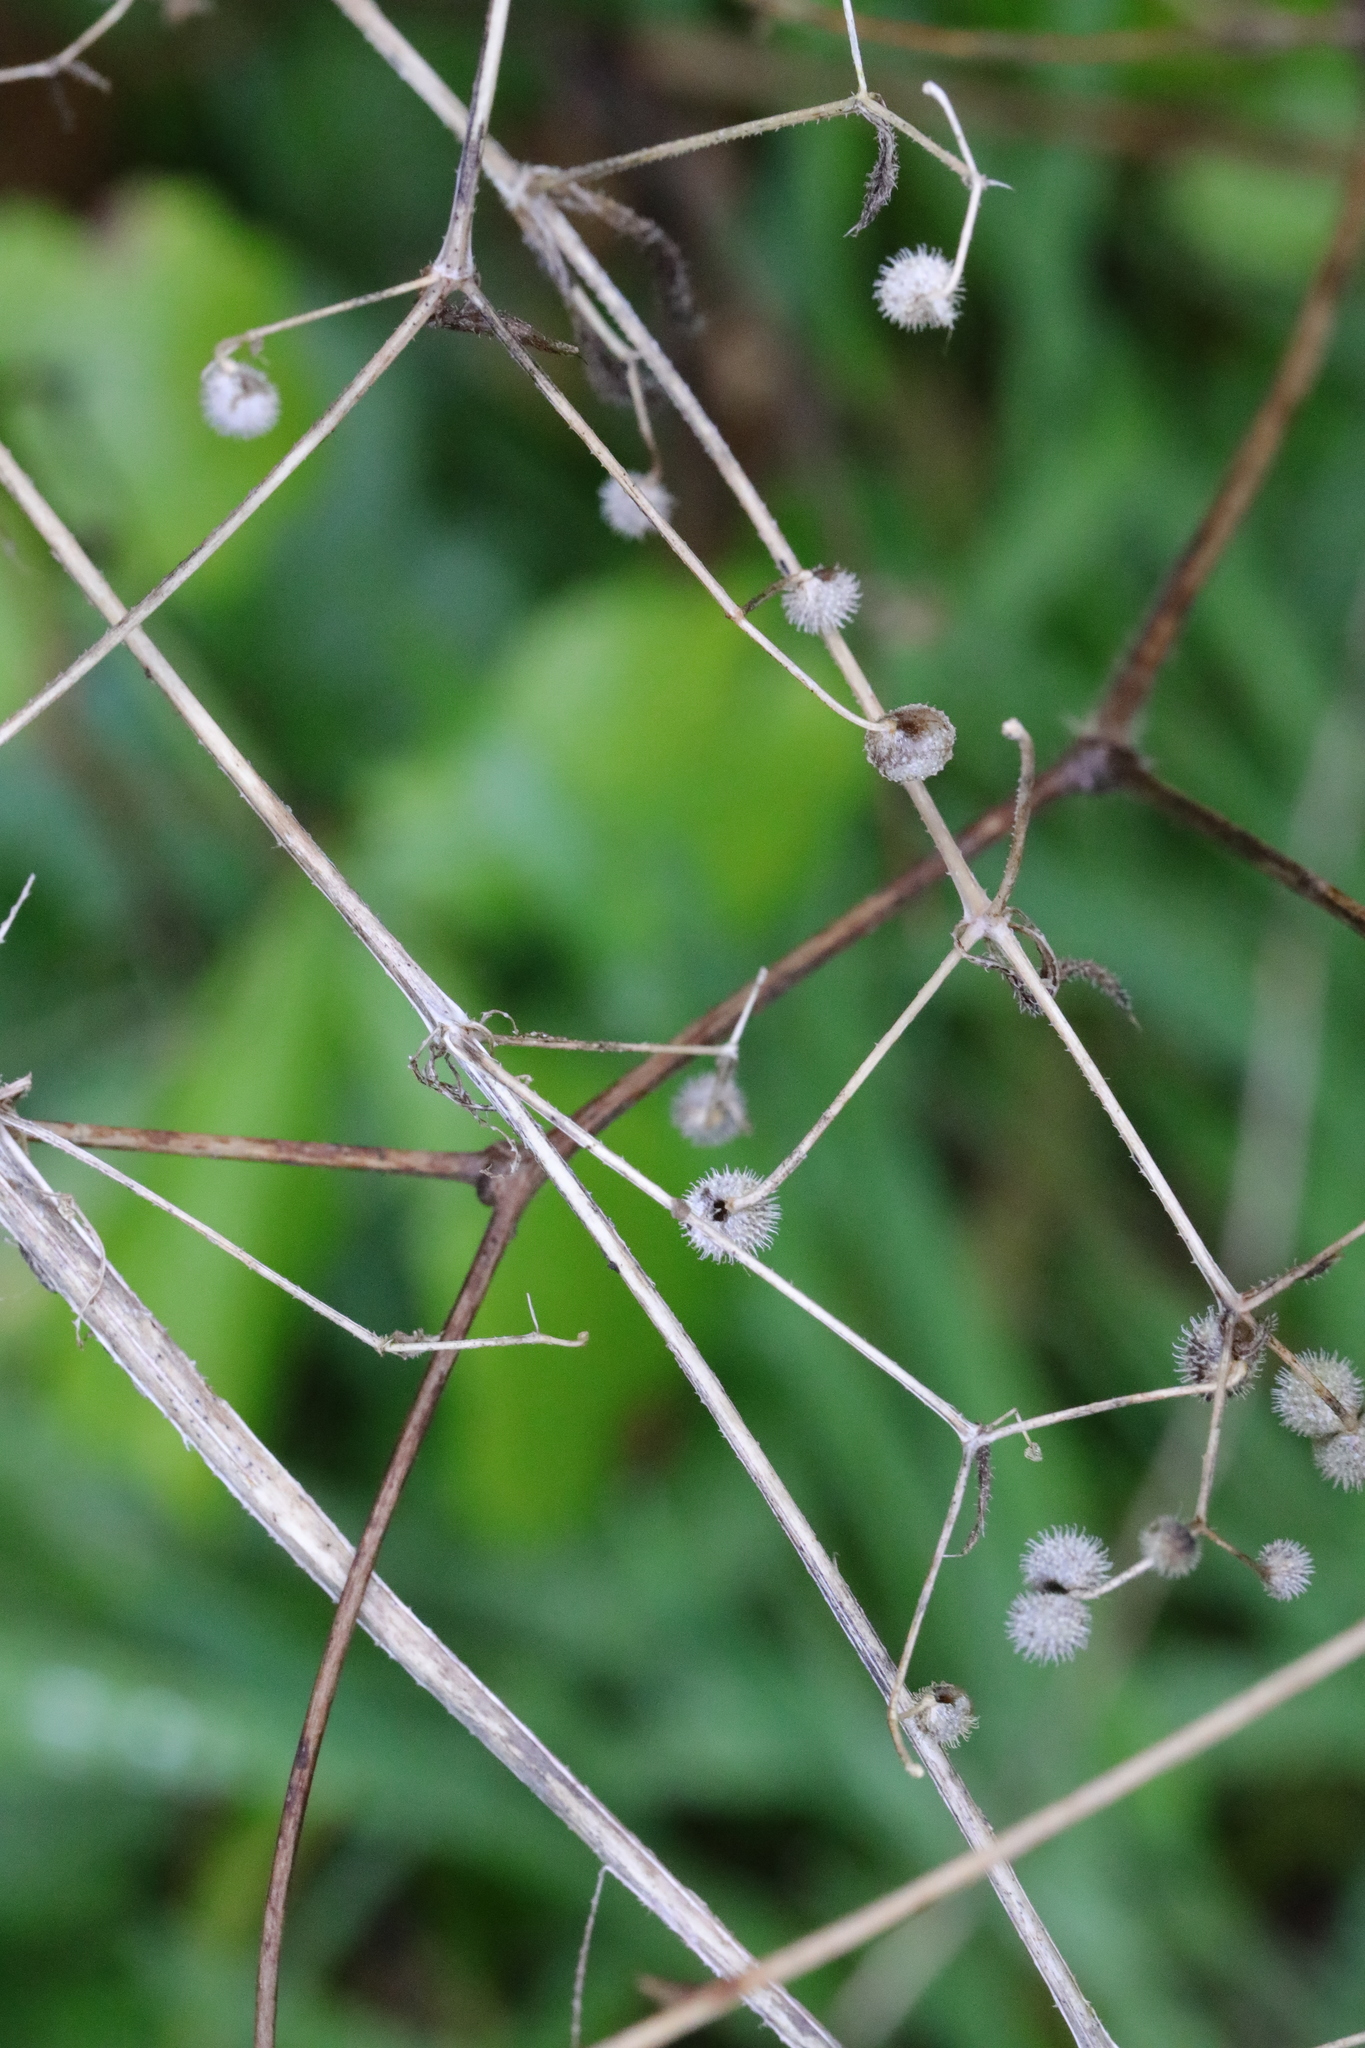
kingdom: Plantae
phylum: Tracheophyta
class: Magnoliopsida
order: Gentianales
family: Rubiaceae
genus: Galium
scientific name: Galium aparine
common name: Cleavers
